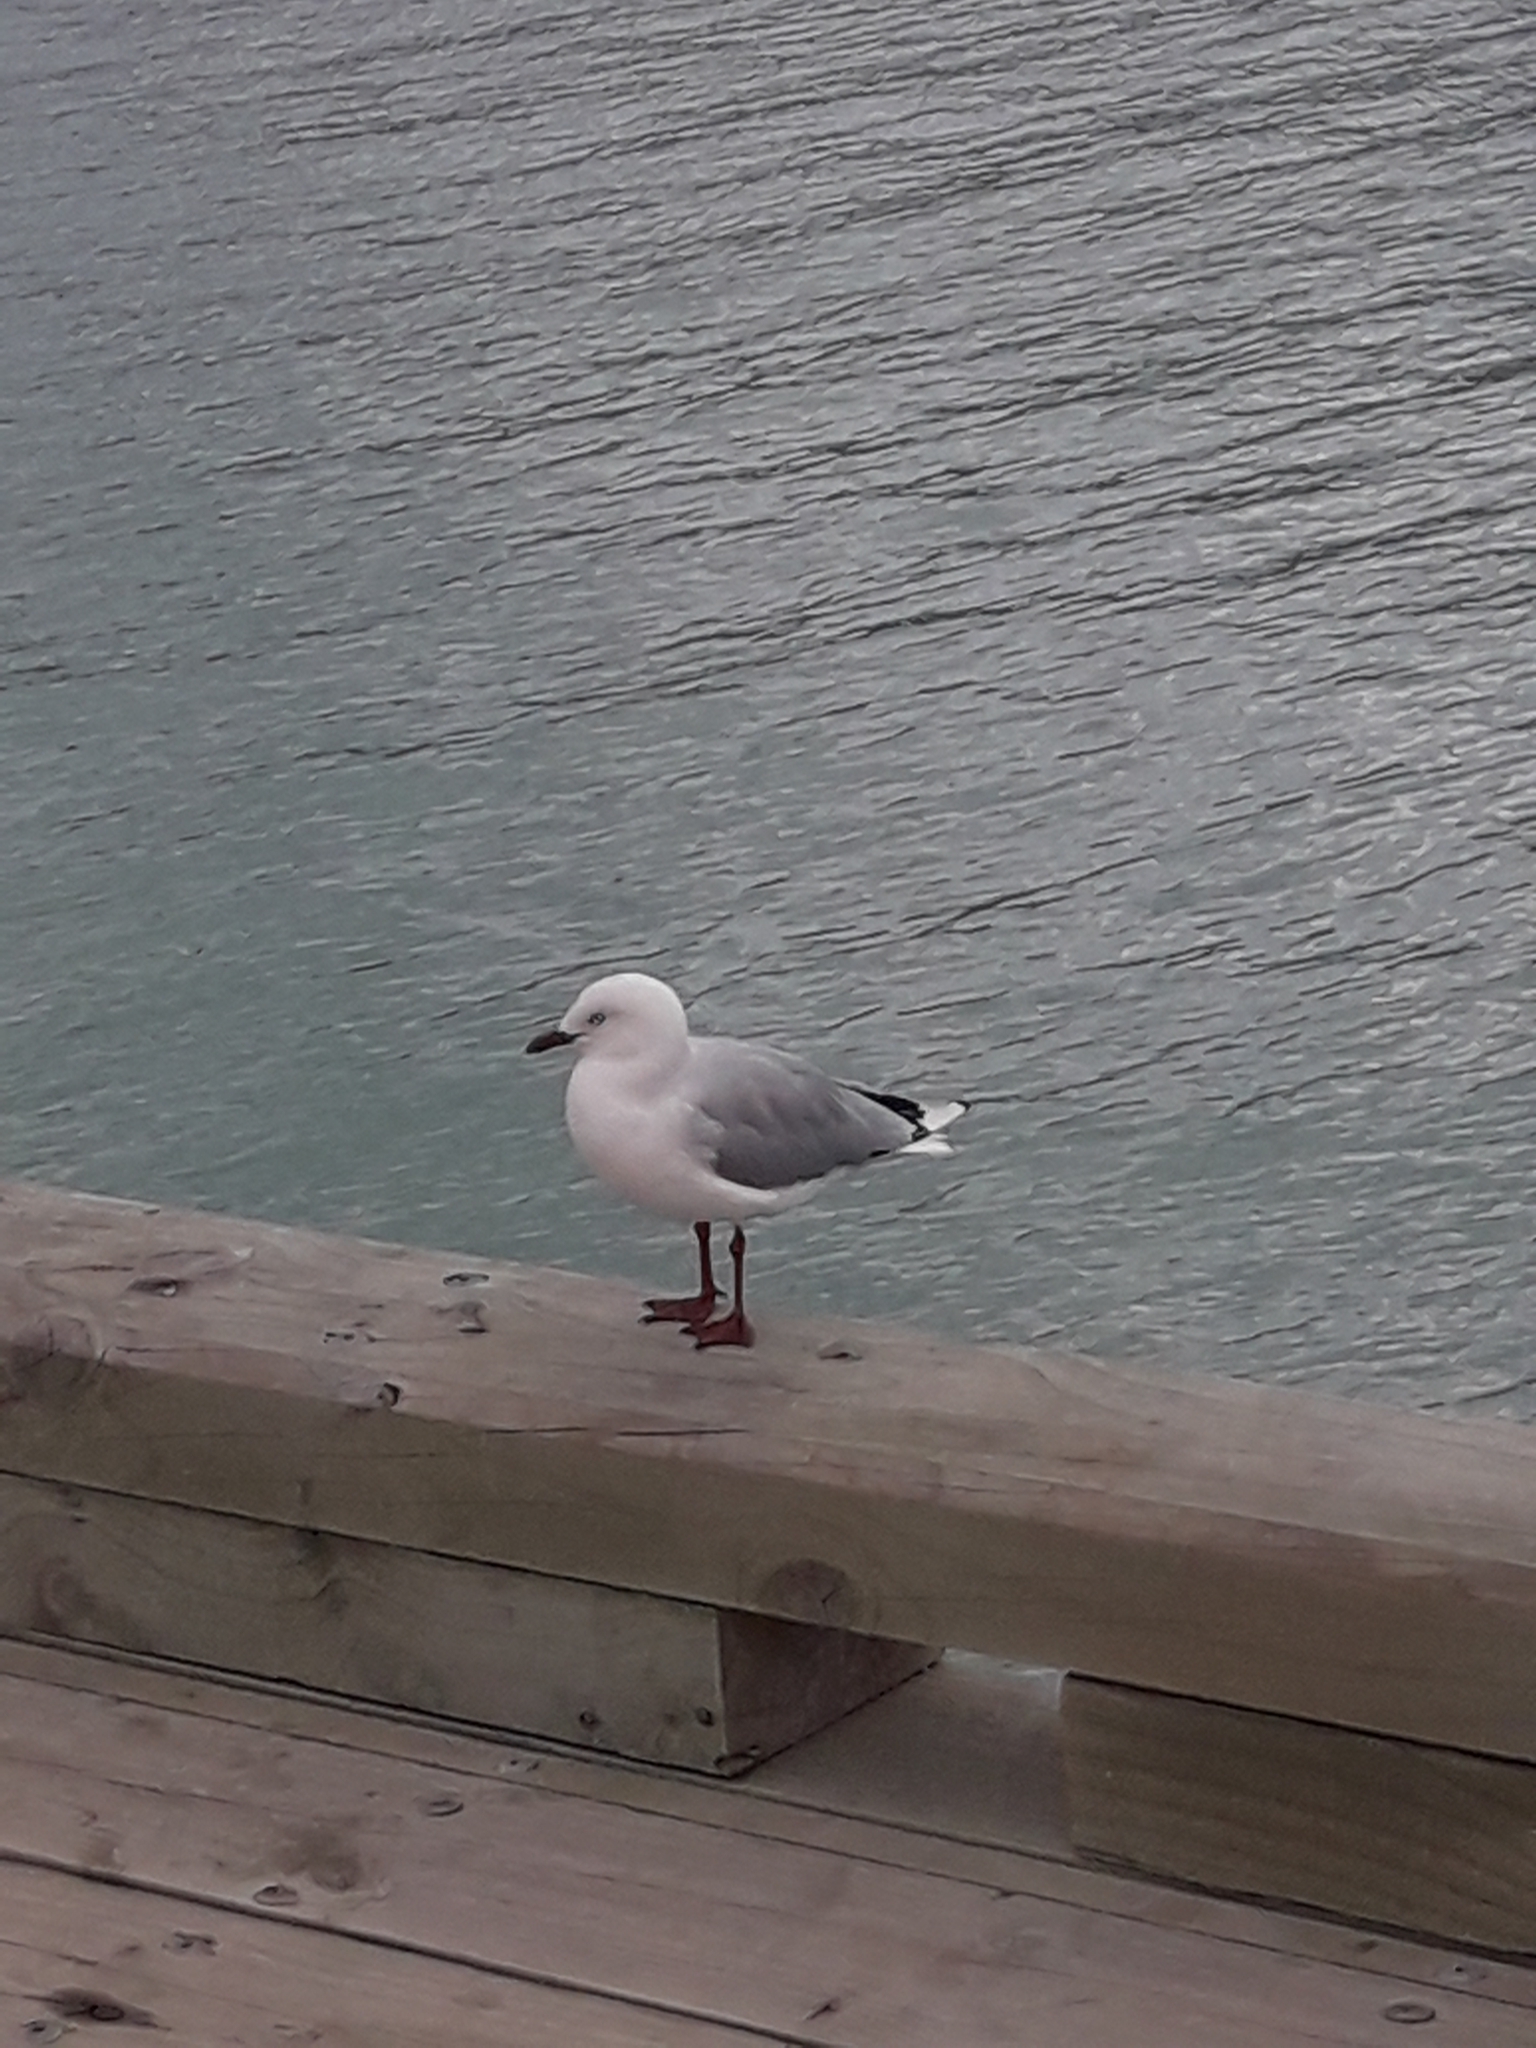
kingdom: Animalia
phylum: Chordata
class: Aves
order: Charadriiformes
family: Laridae
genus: Chroicocephalus
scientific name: Chroicocephalus novaehollandiae
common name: Silver gull
